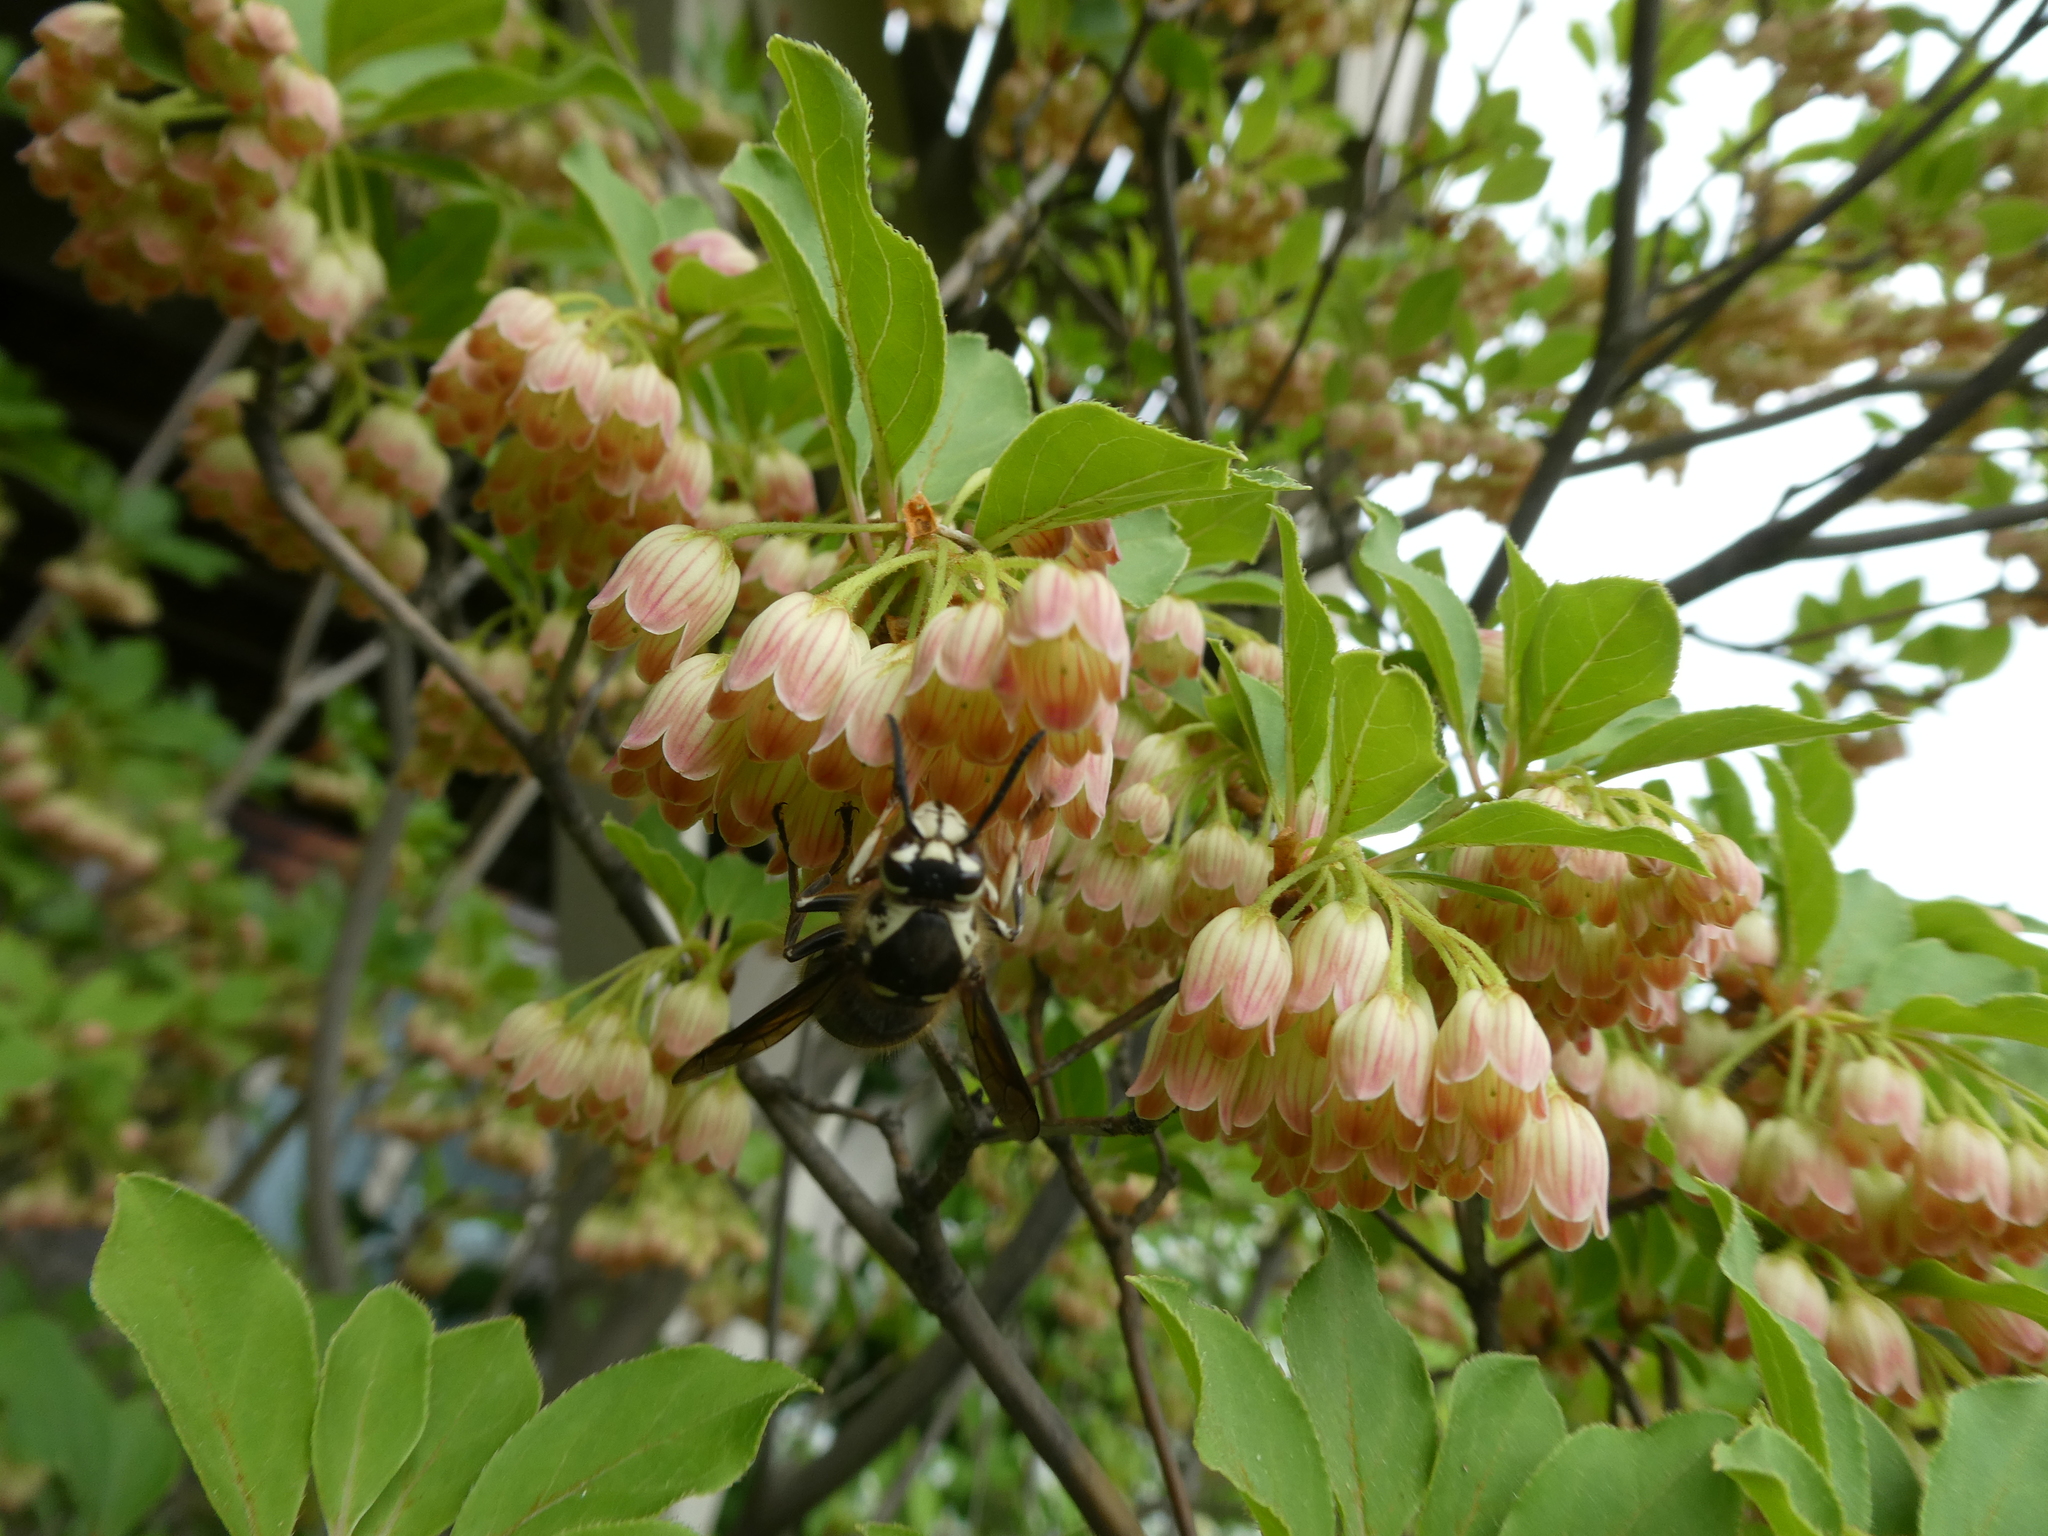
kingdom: Animalia
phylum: Arthropoda
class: Insecta
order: Hymenoptera
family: Vespidae
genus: Dolichovespula
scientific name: Dolichovespula maculata
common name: Bald-faced hornet
